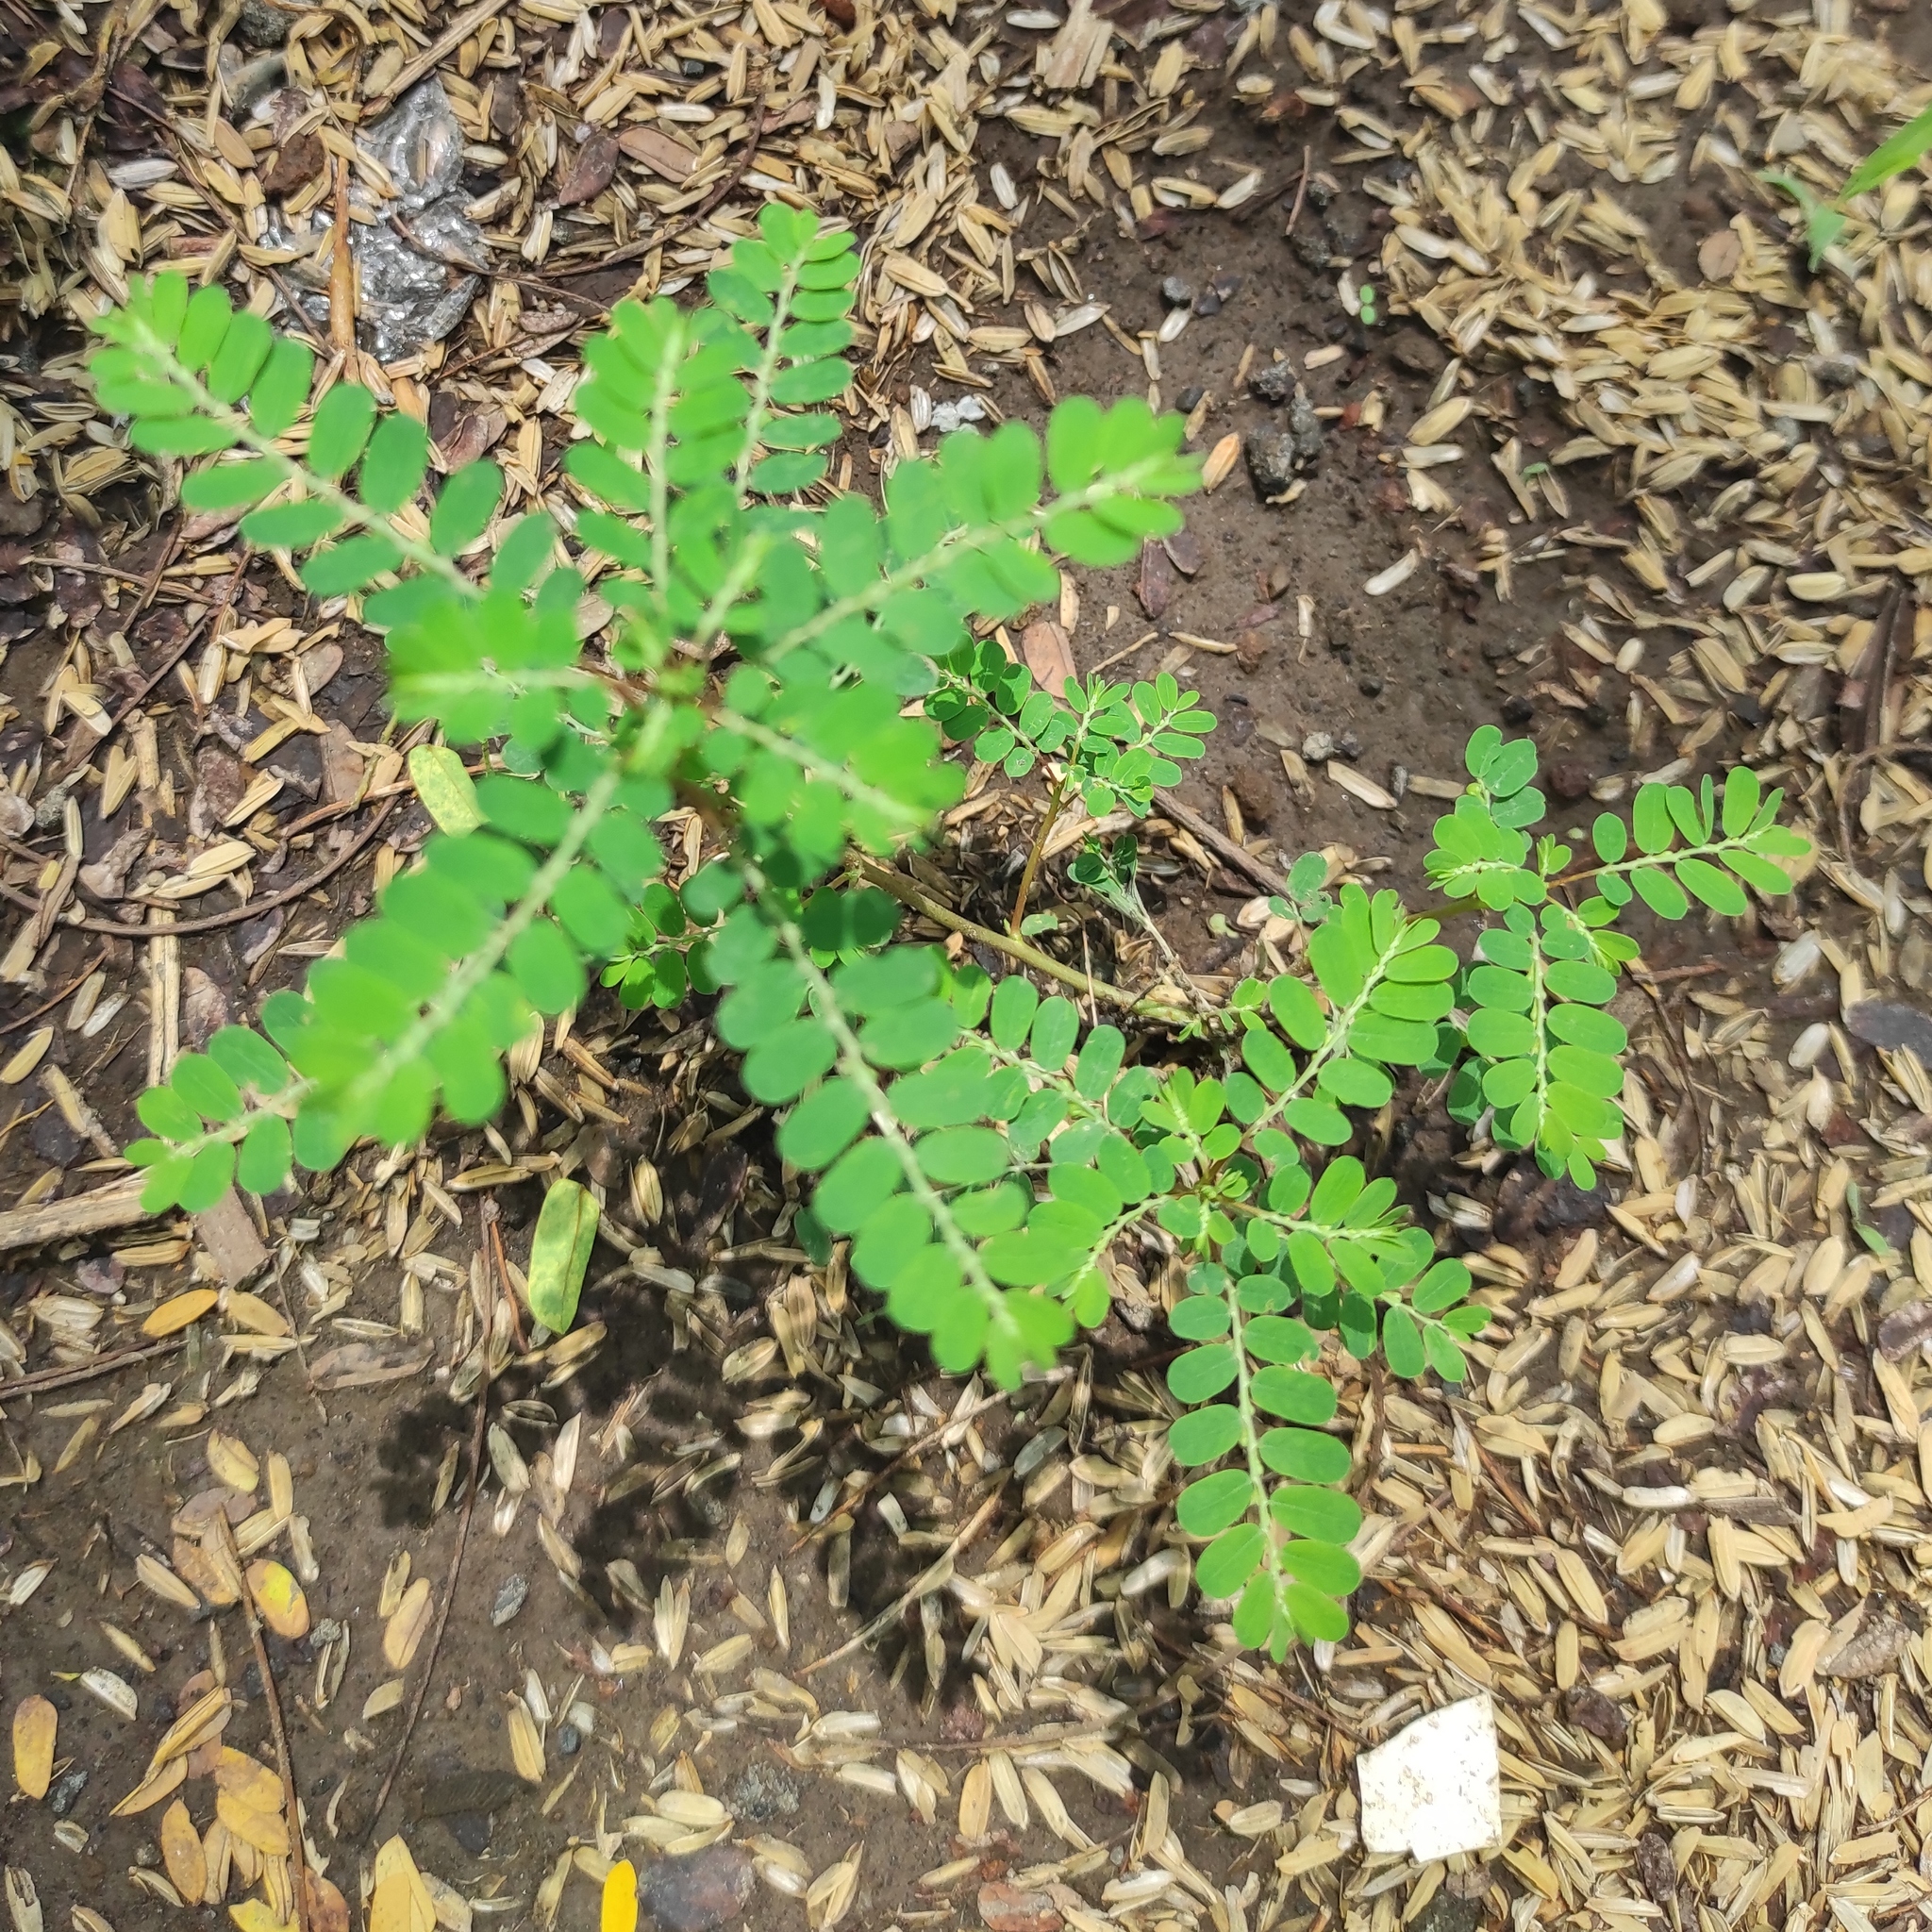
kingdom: Plantae
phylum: Tracheophyta
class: Magnoliopsida
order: Malpighiales
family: Phyllanthaceae
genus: Phyllanthus
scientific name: Phyllanthus amarus
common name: Carry me seed
